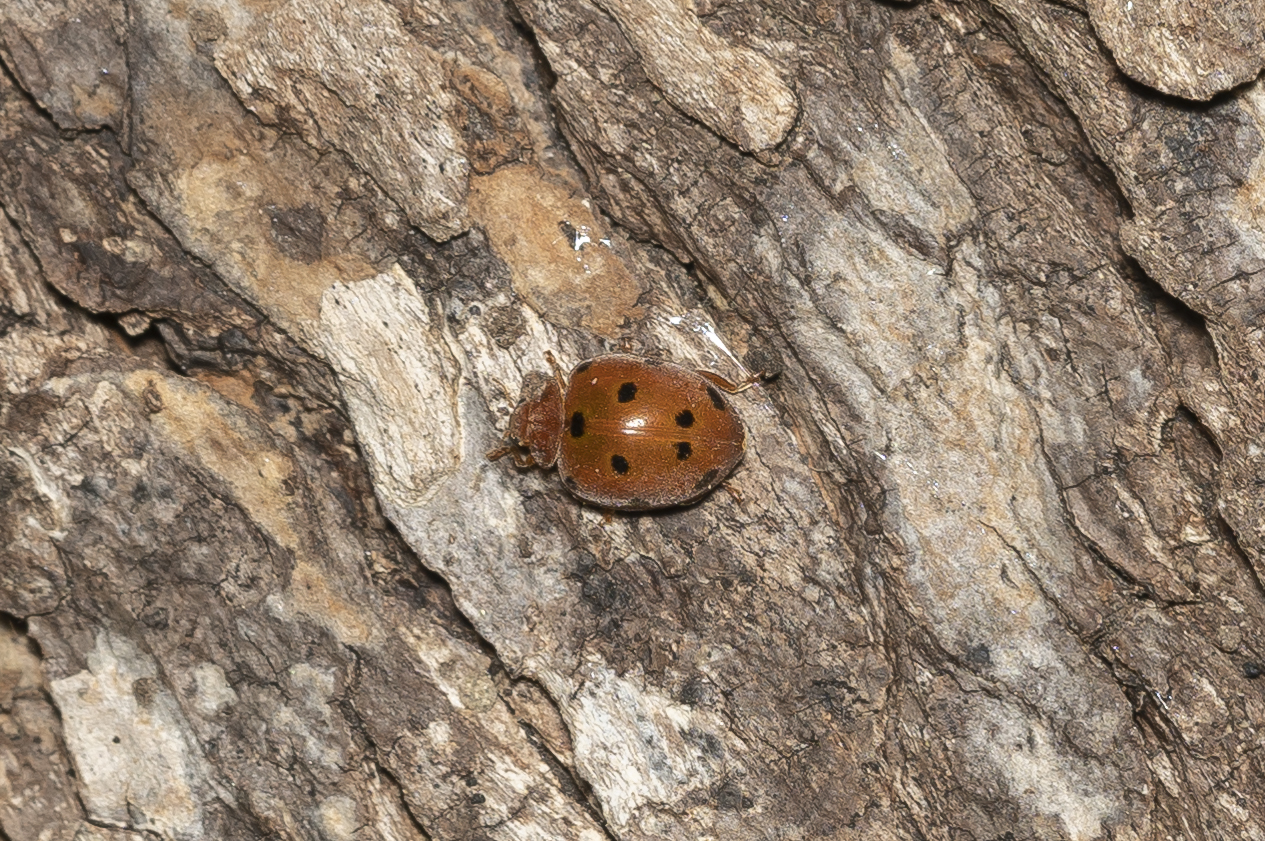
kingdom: Animalia
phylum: Arthropoda
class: Insecta
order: Coleoptera
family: Coccinellidae
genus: Henosepilachna
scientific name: Henosepilachna argus
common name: Bryony ladybird
